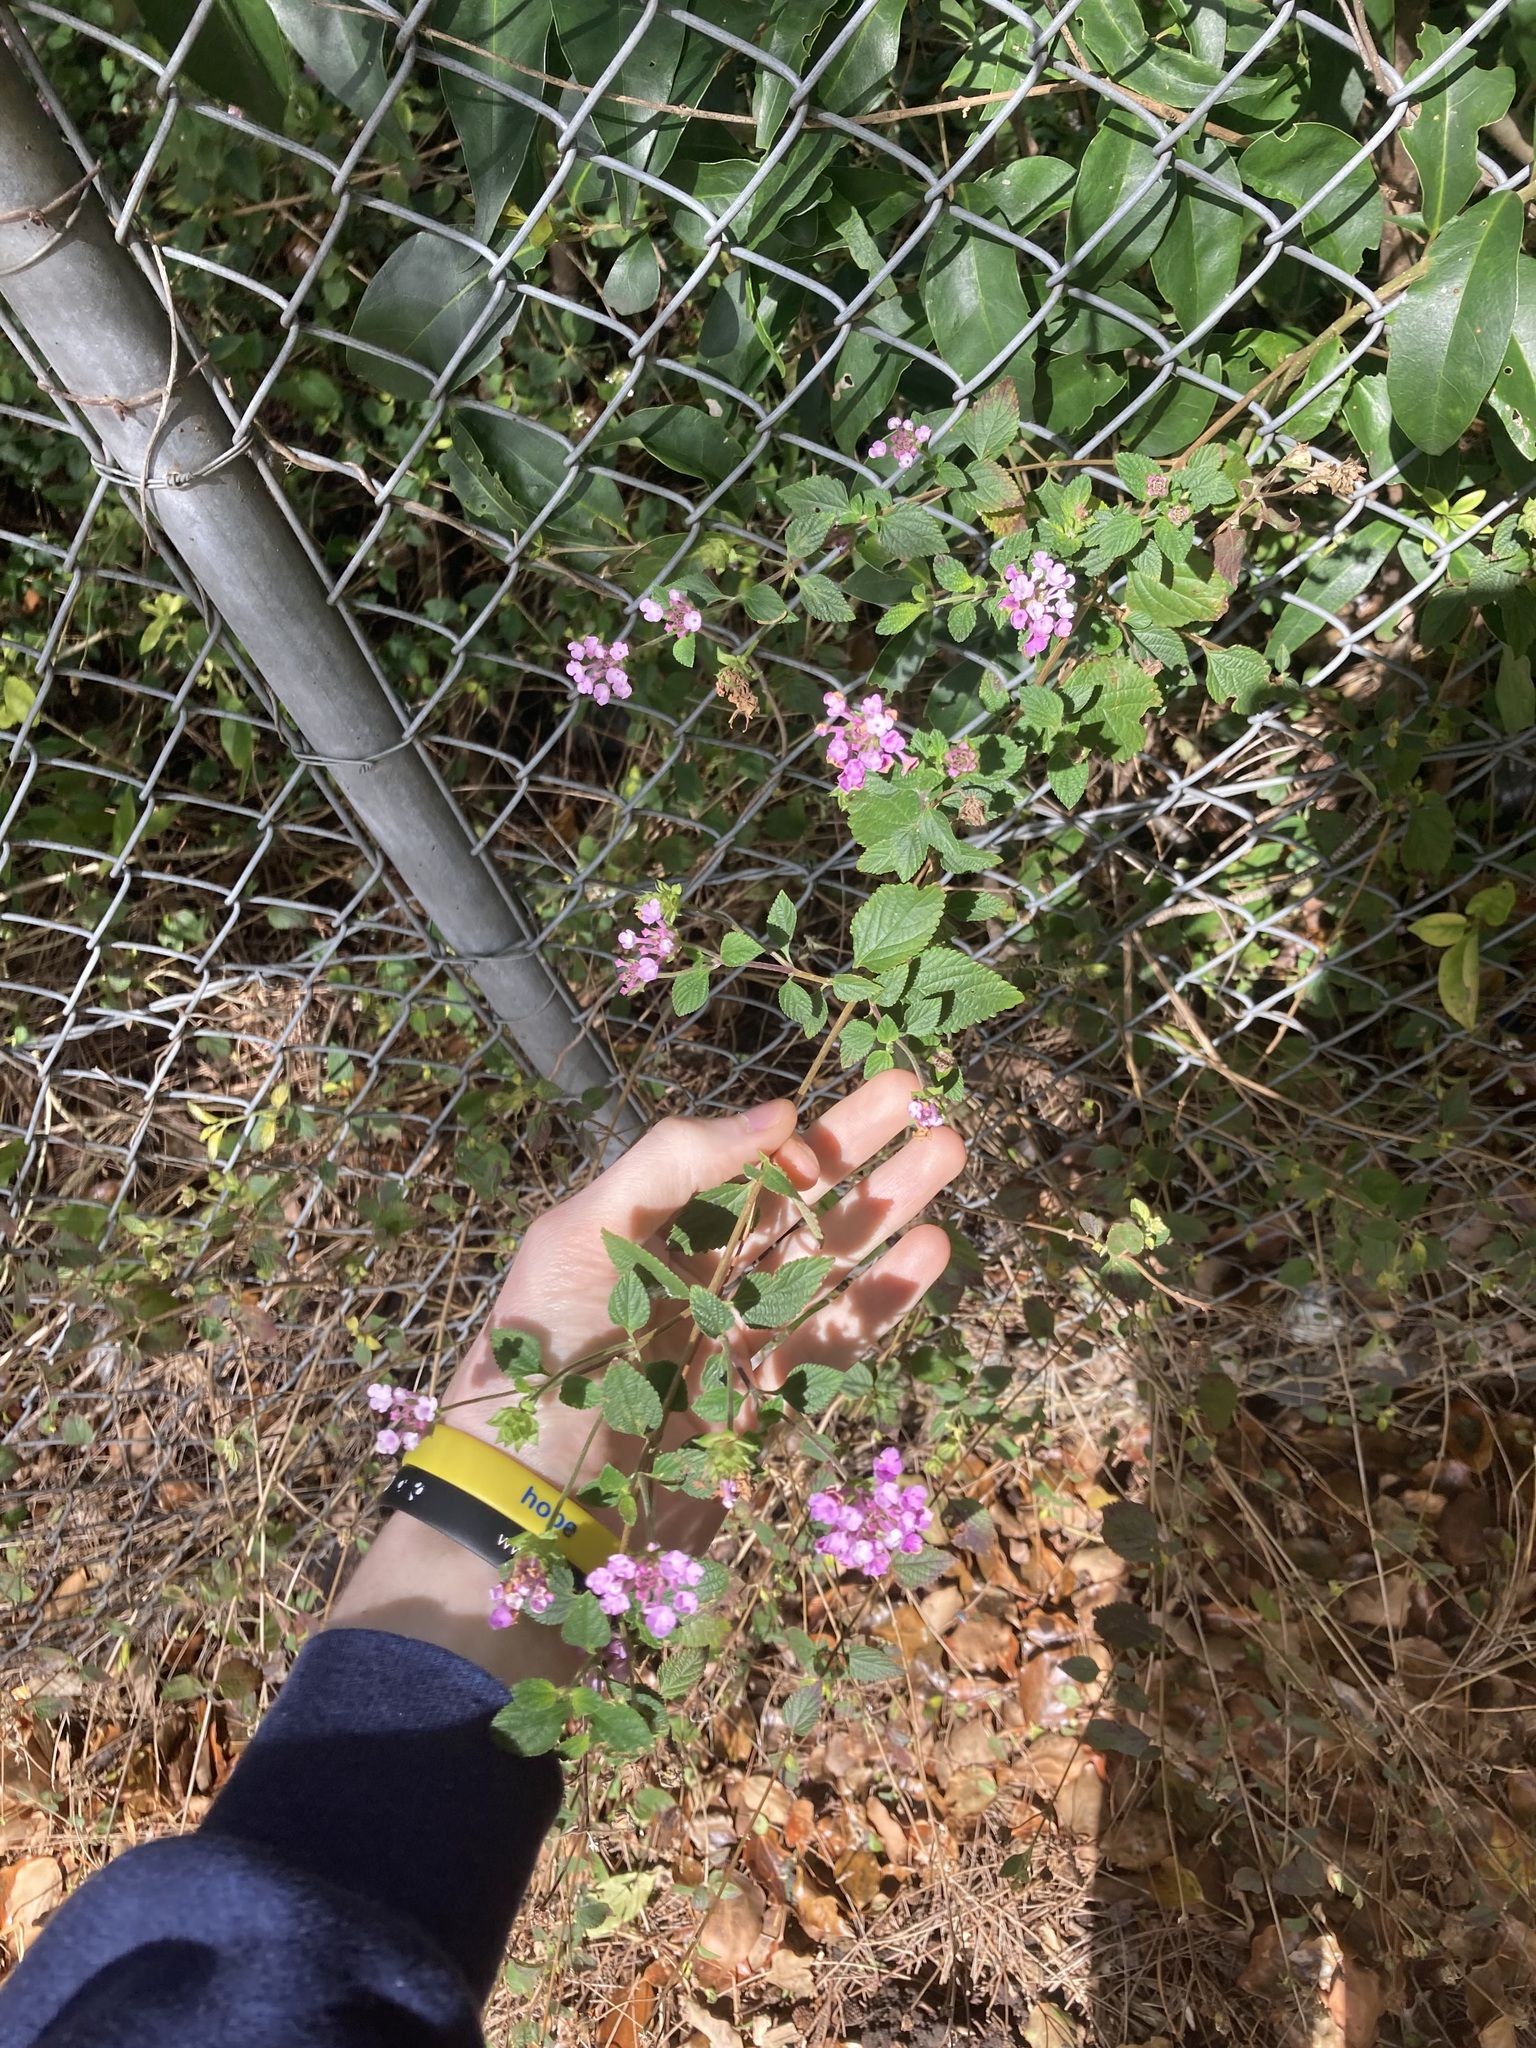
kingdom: Plantae
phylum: Tracheophyta
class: Magnoliopsida
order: Lamiales
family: Verbenaceae
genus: Lantana
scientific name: Lantana montevidensis
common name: Trailing shrubverbena
